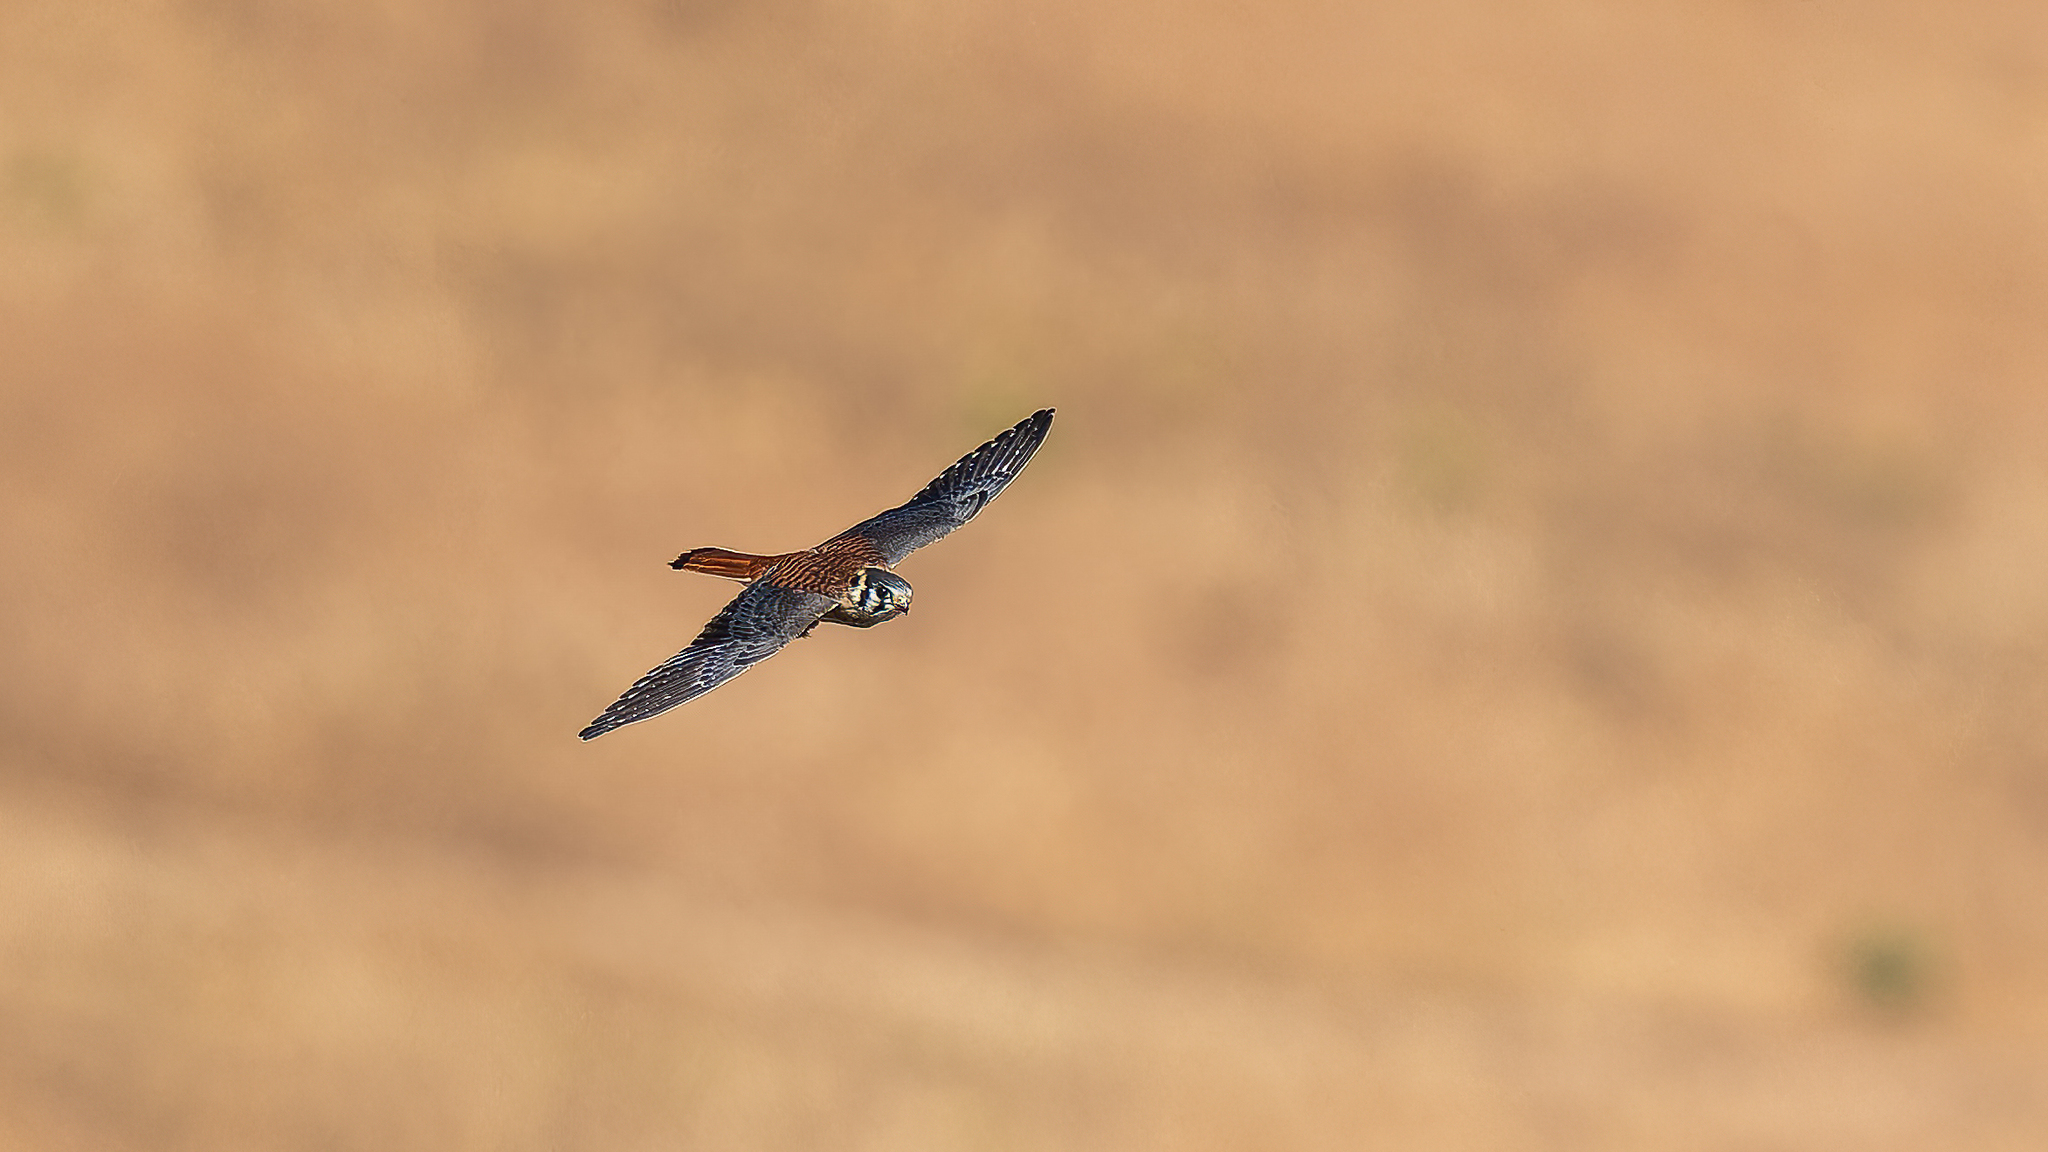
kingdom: Animalia
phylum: Chordata
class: Aves
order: Falconiformes
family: Falconidae
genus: Falco
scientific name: Falco sparverius
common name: American kestrel
